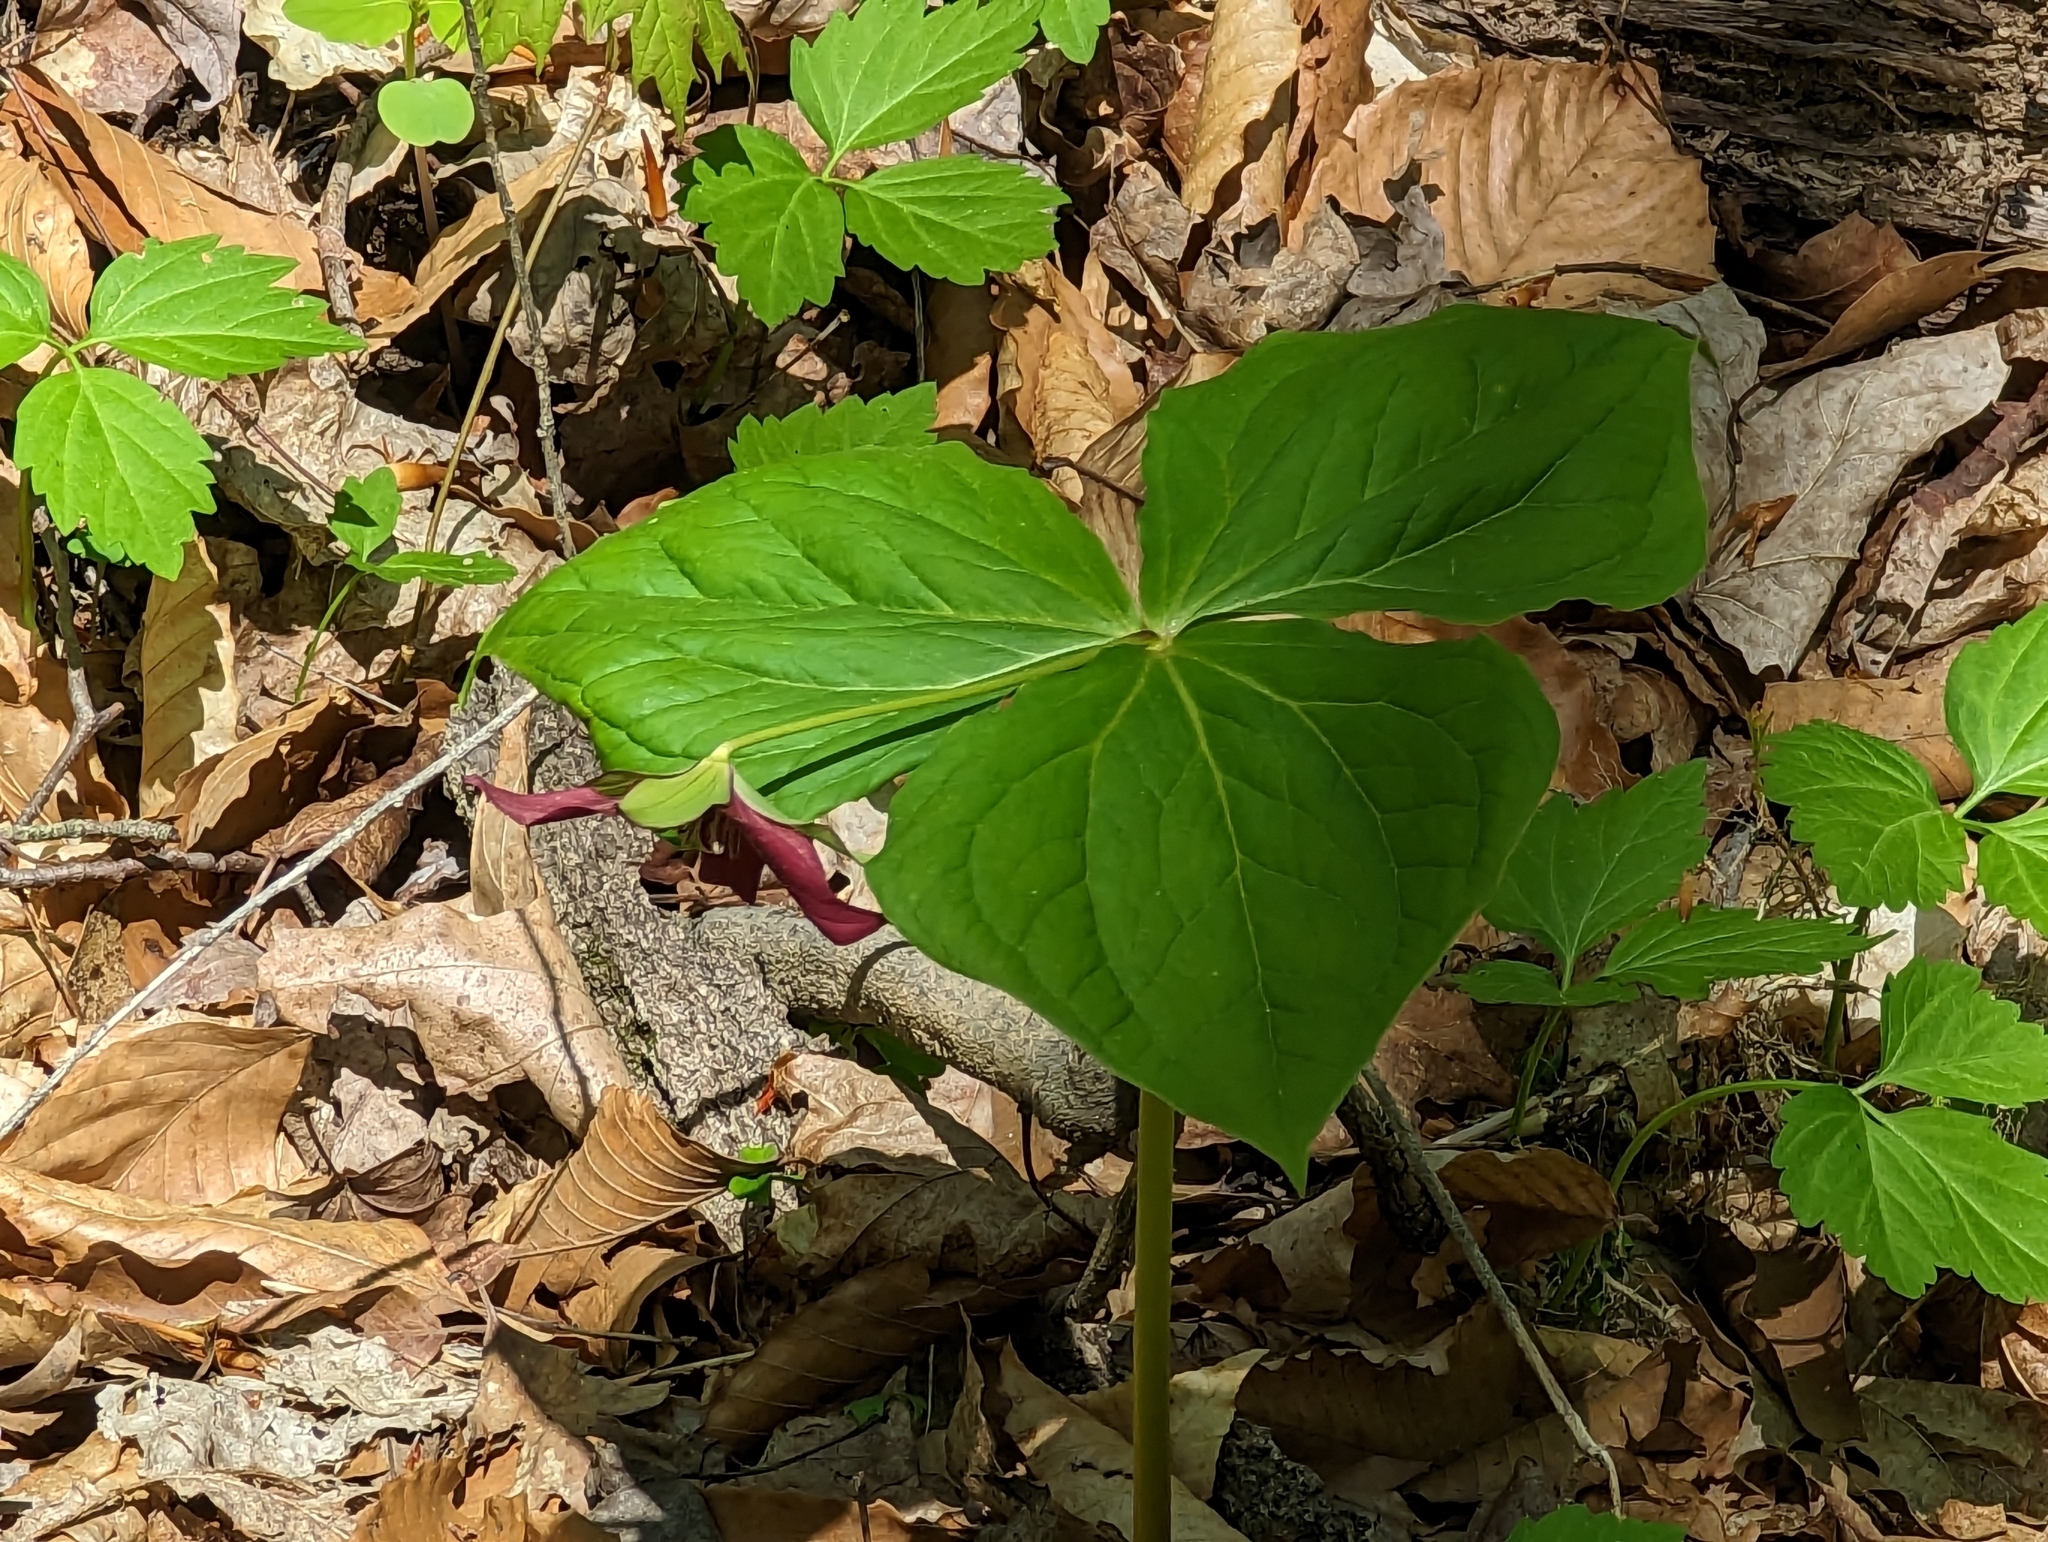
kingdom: Plantae
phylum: Tracheophyta
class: Liliopsida
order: Liliales
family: Melanthiaceae
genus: Trillium
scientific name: Trillium erectum
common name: Purple trillium
